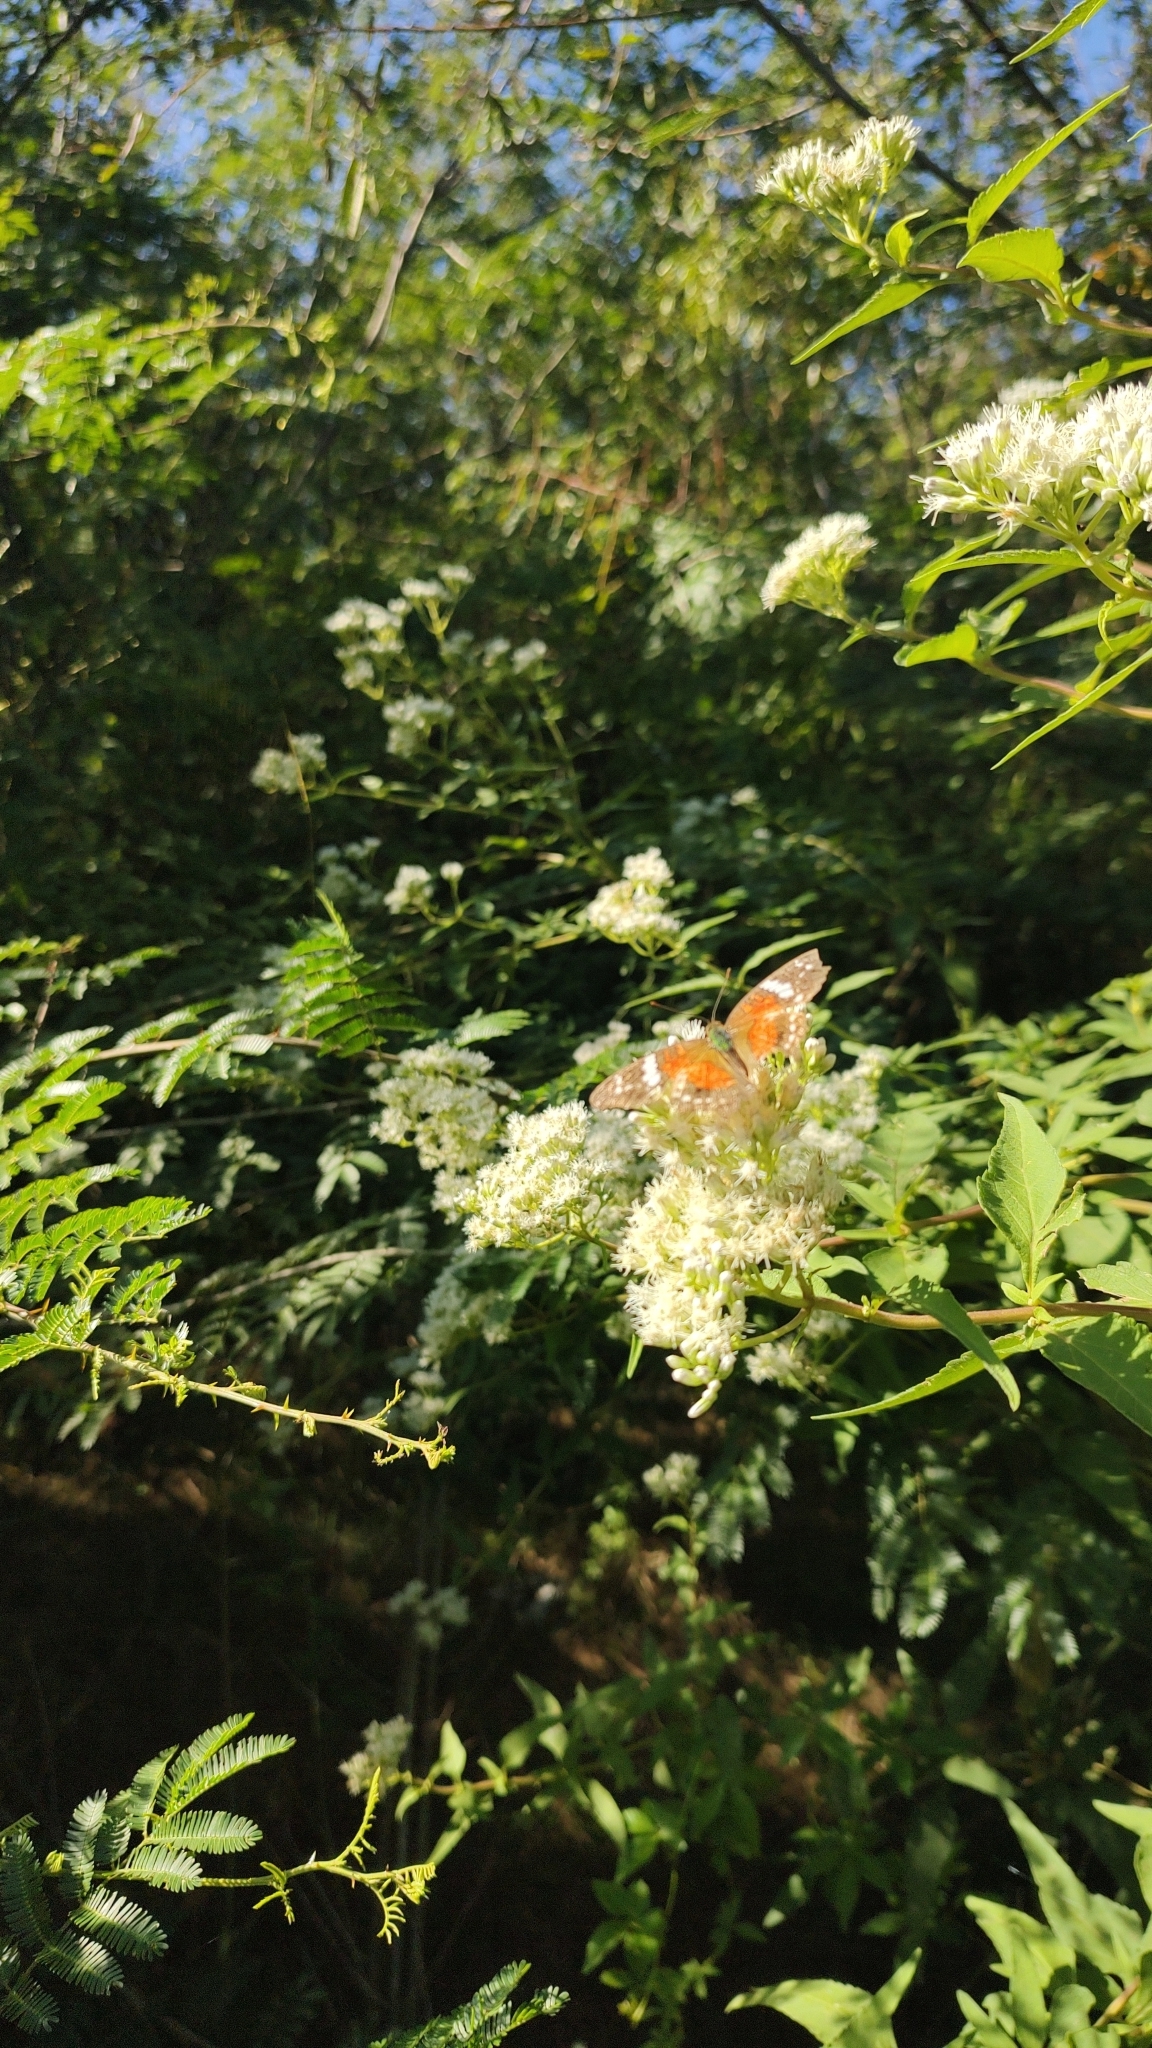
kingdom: Animalia
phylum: Arthropoda
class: Insecta
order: Lepidoptera
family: Nymphalidae
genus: Anartia
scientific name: Anartia amathea
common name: Red peacock
